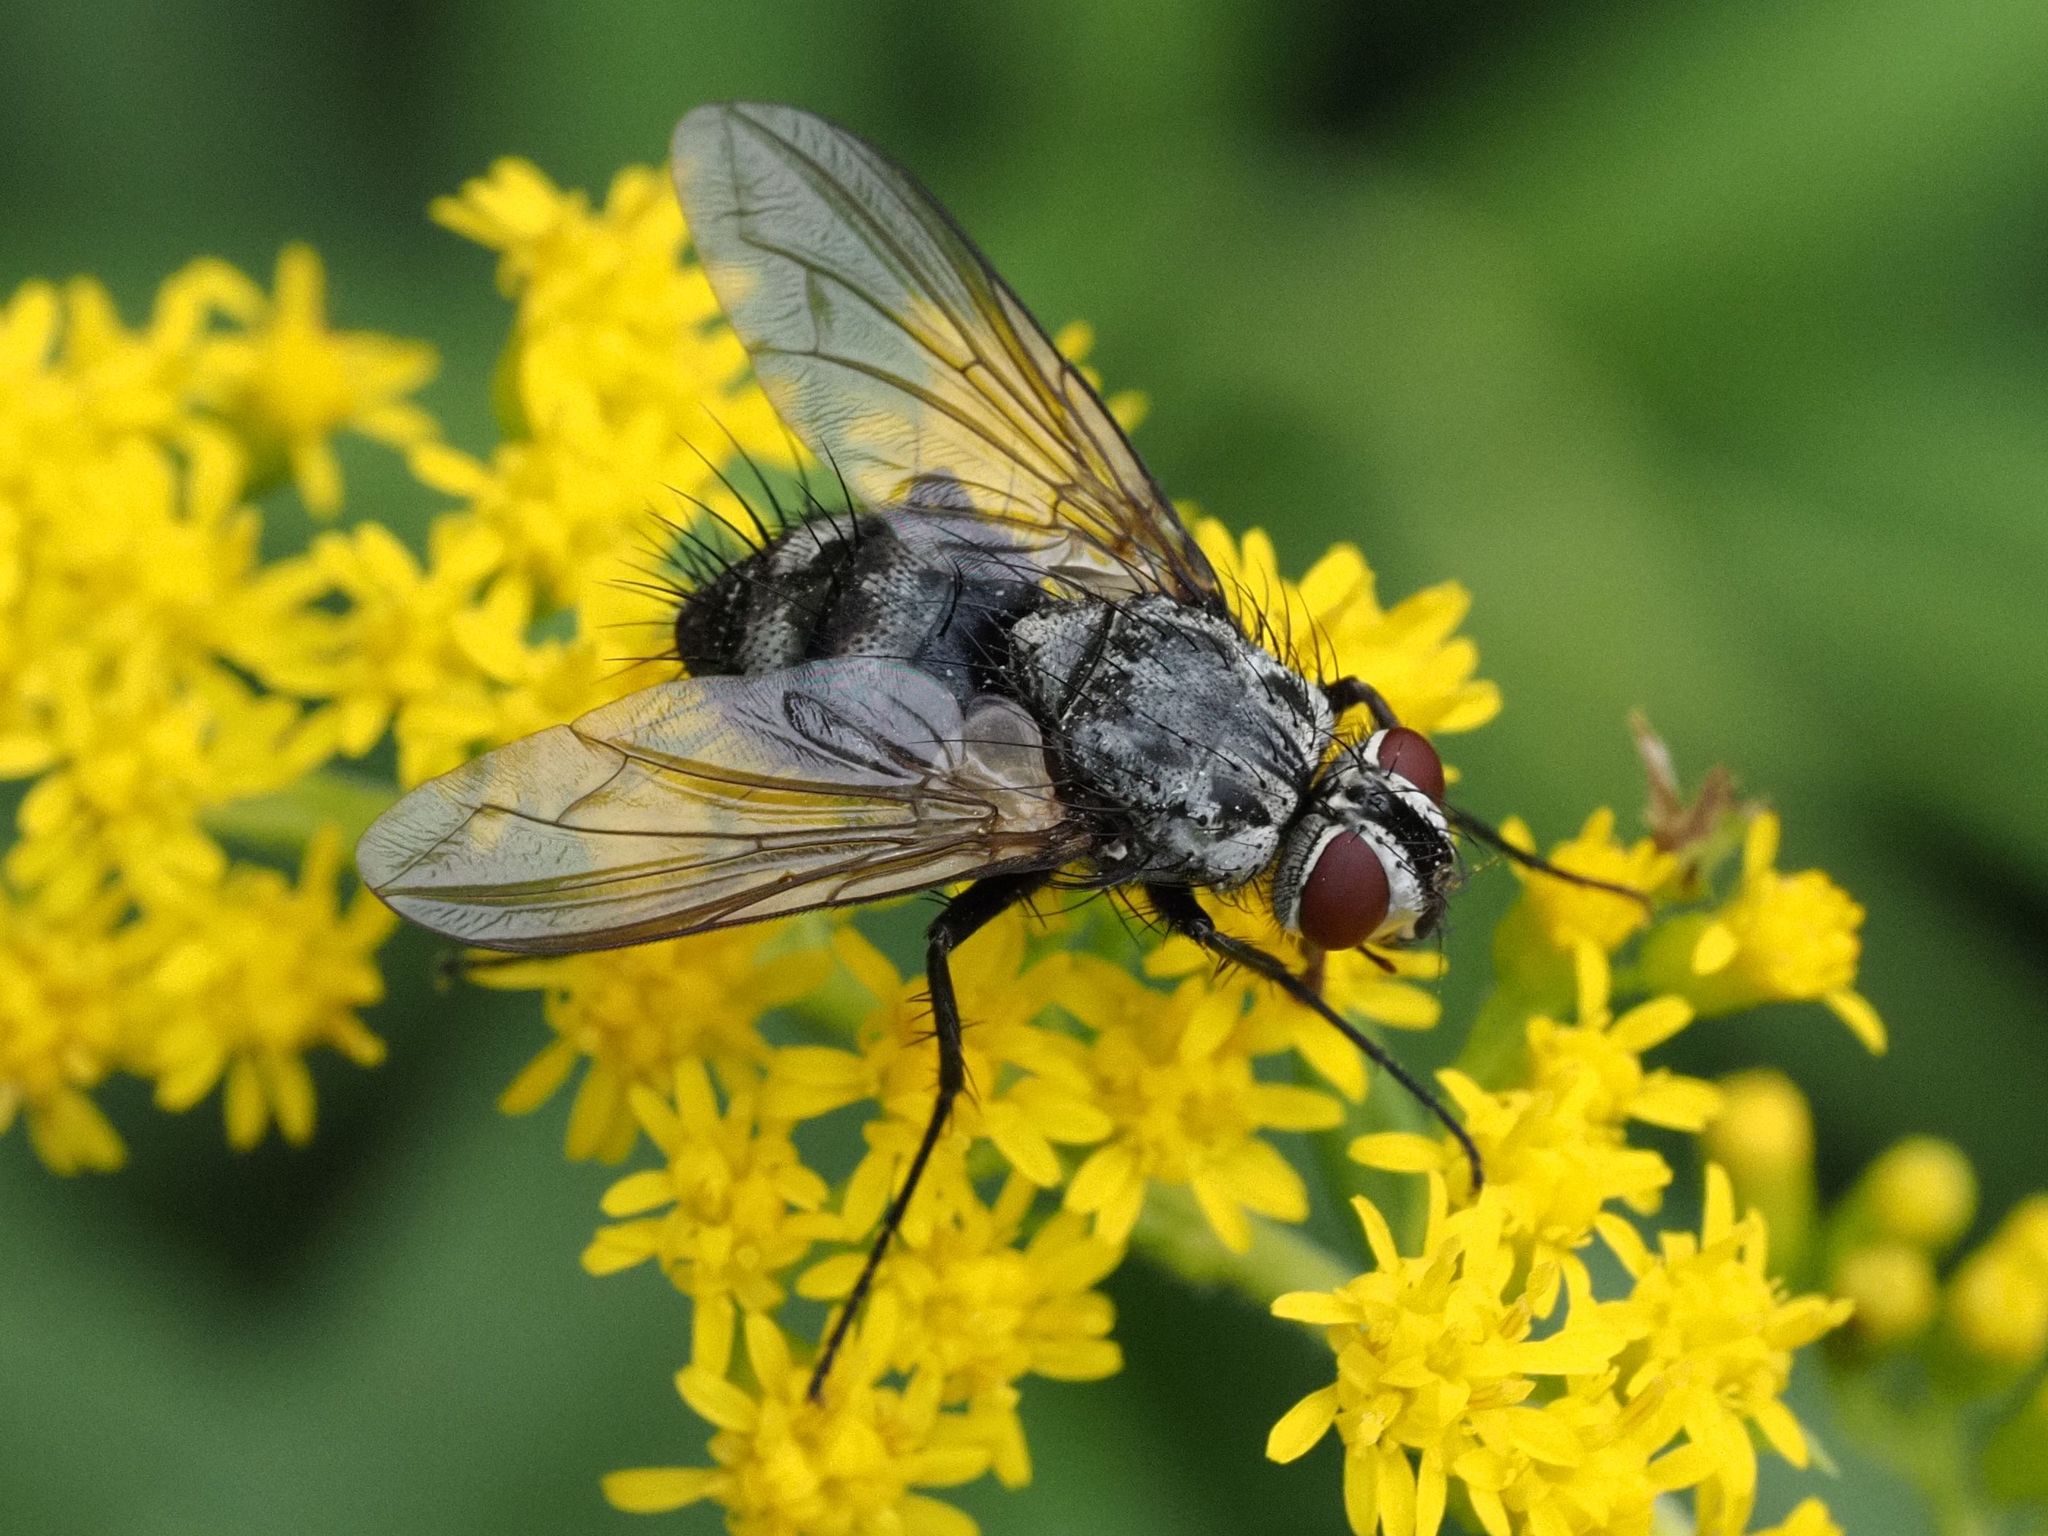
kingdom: Animalia
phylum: Arthropoda
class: Insecta
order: Diptera
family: Tachinidae
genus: Dinera
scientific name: Dinera ferina
